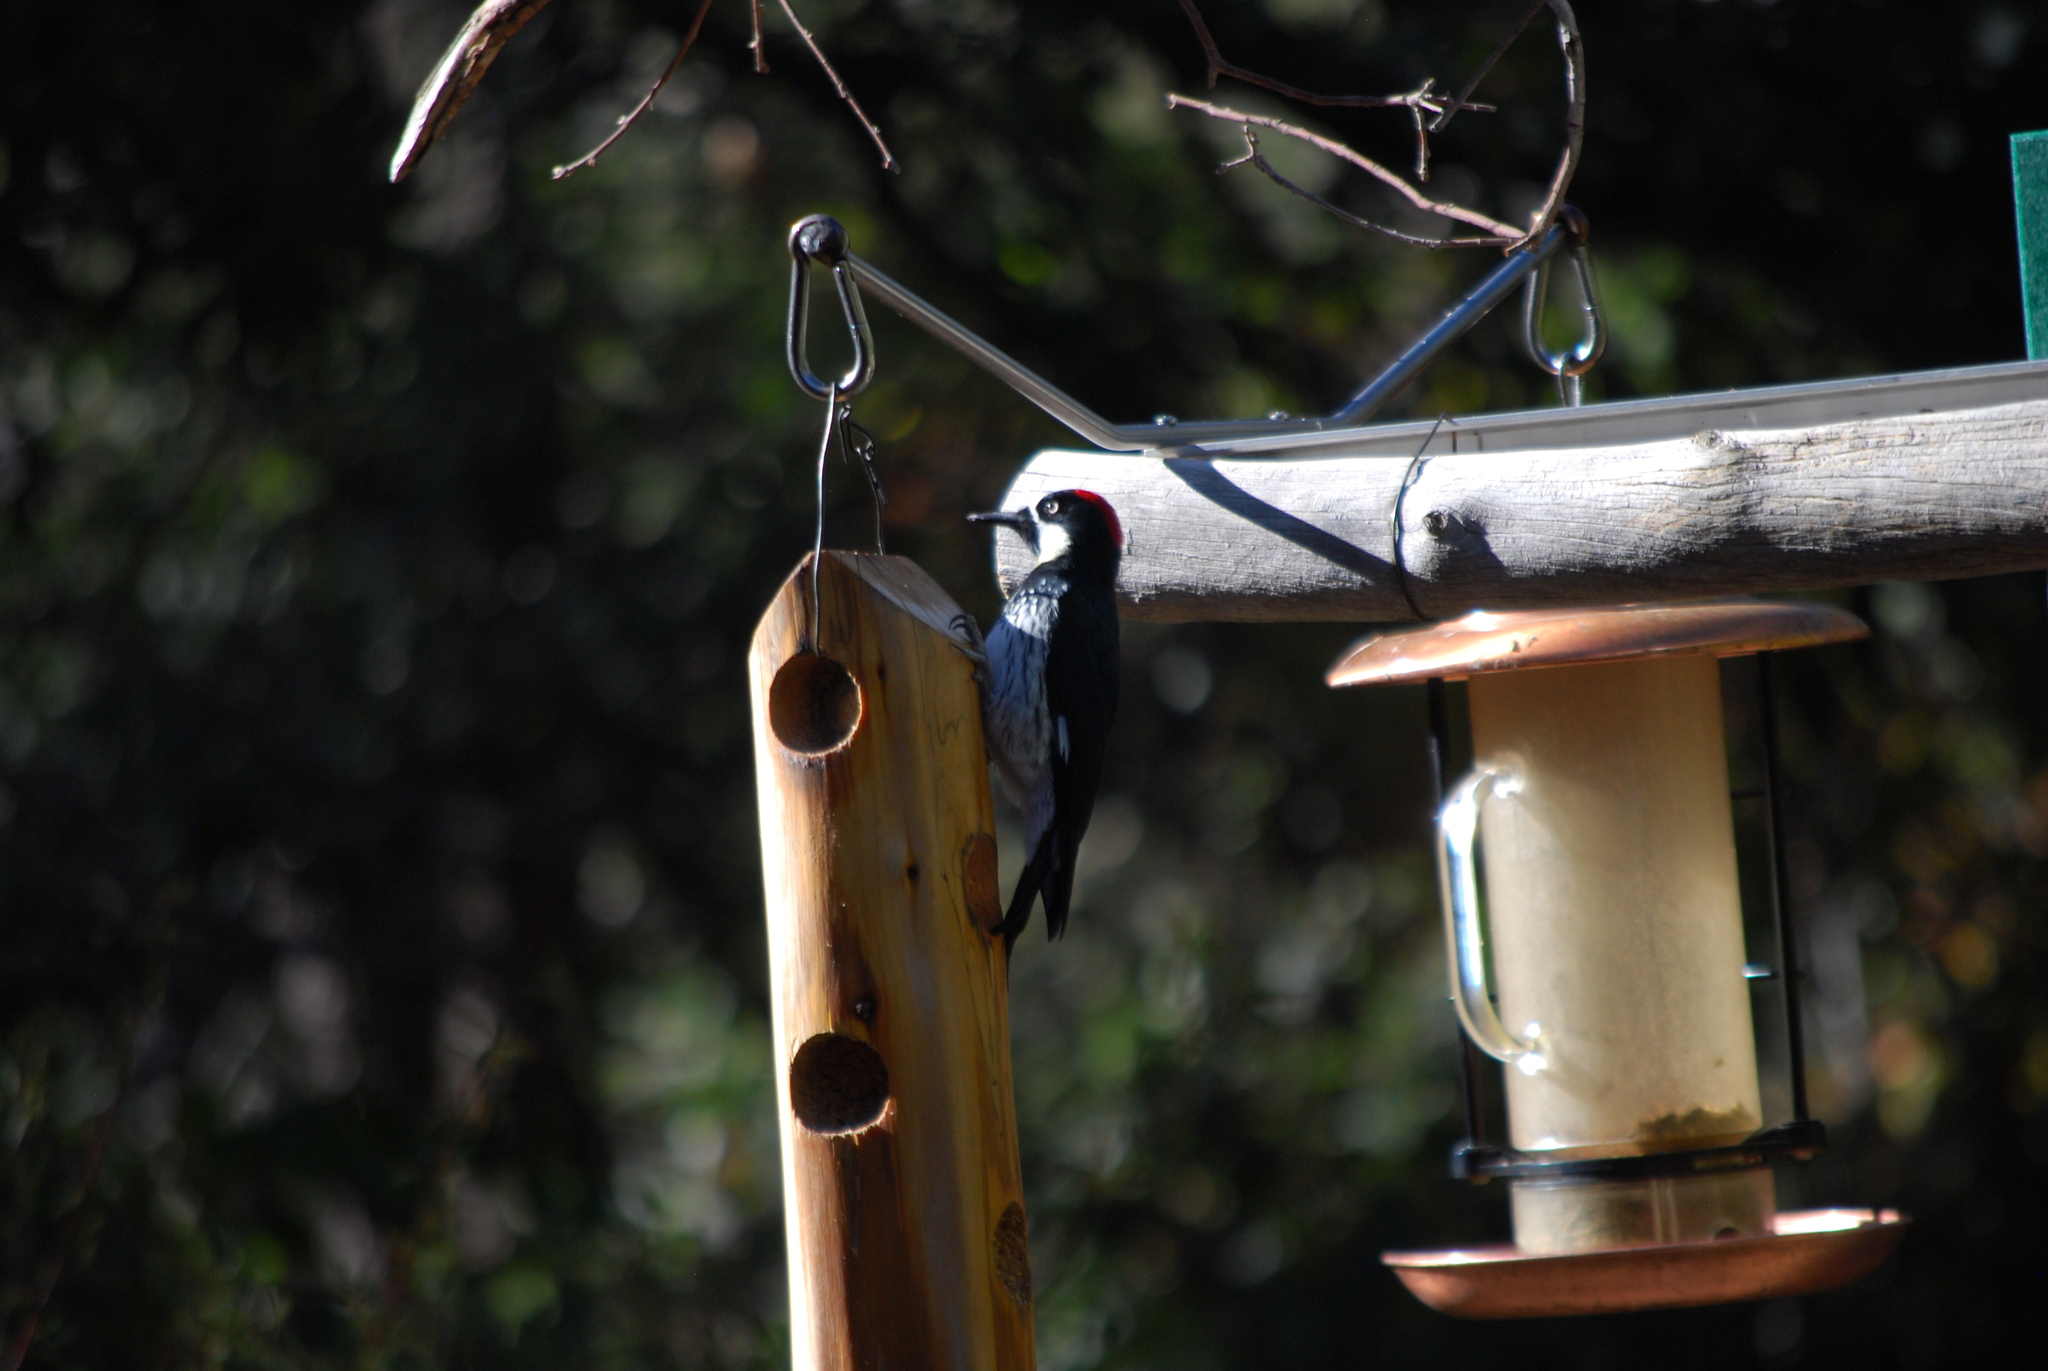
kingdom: Animalia
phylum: Chordata
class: Aves
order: Piciformes
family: Picidae
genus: Melanerpes
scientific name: Melanerpes formicivorus
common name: Acorn woodpecker
